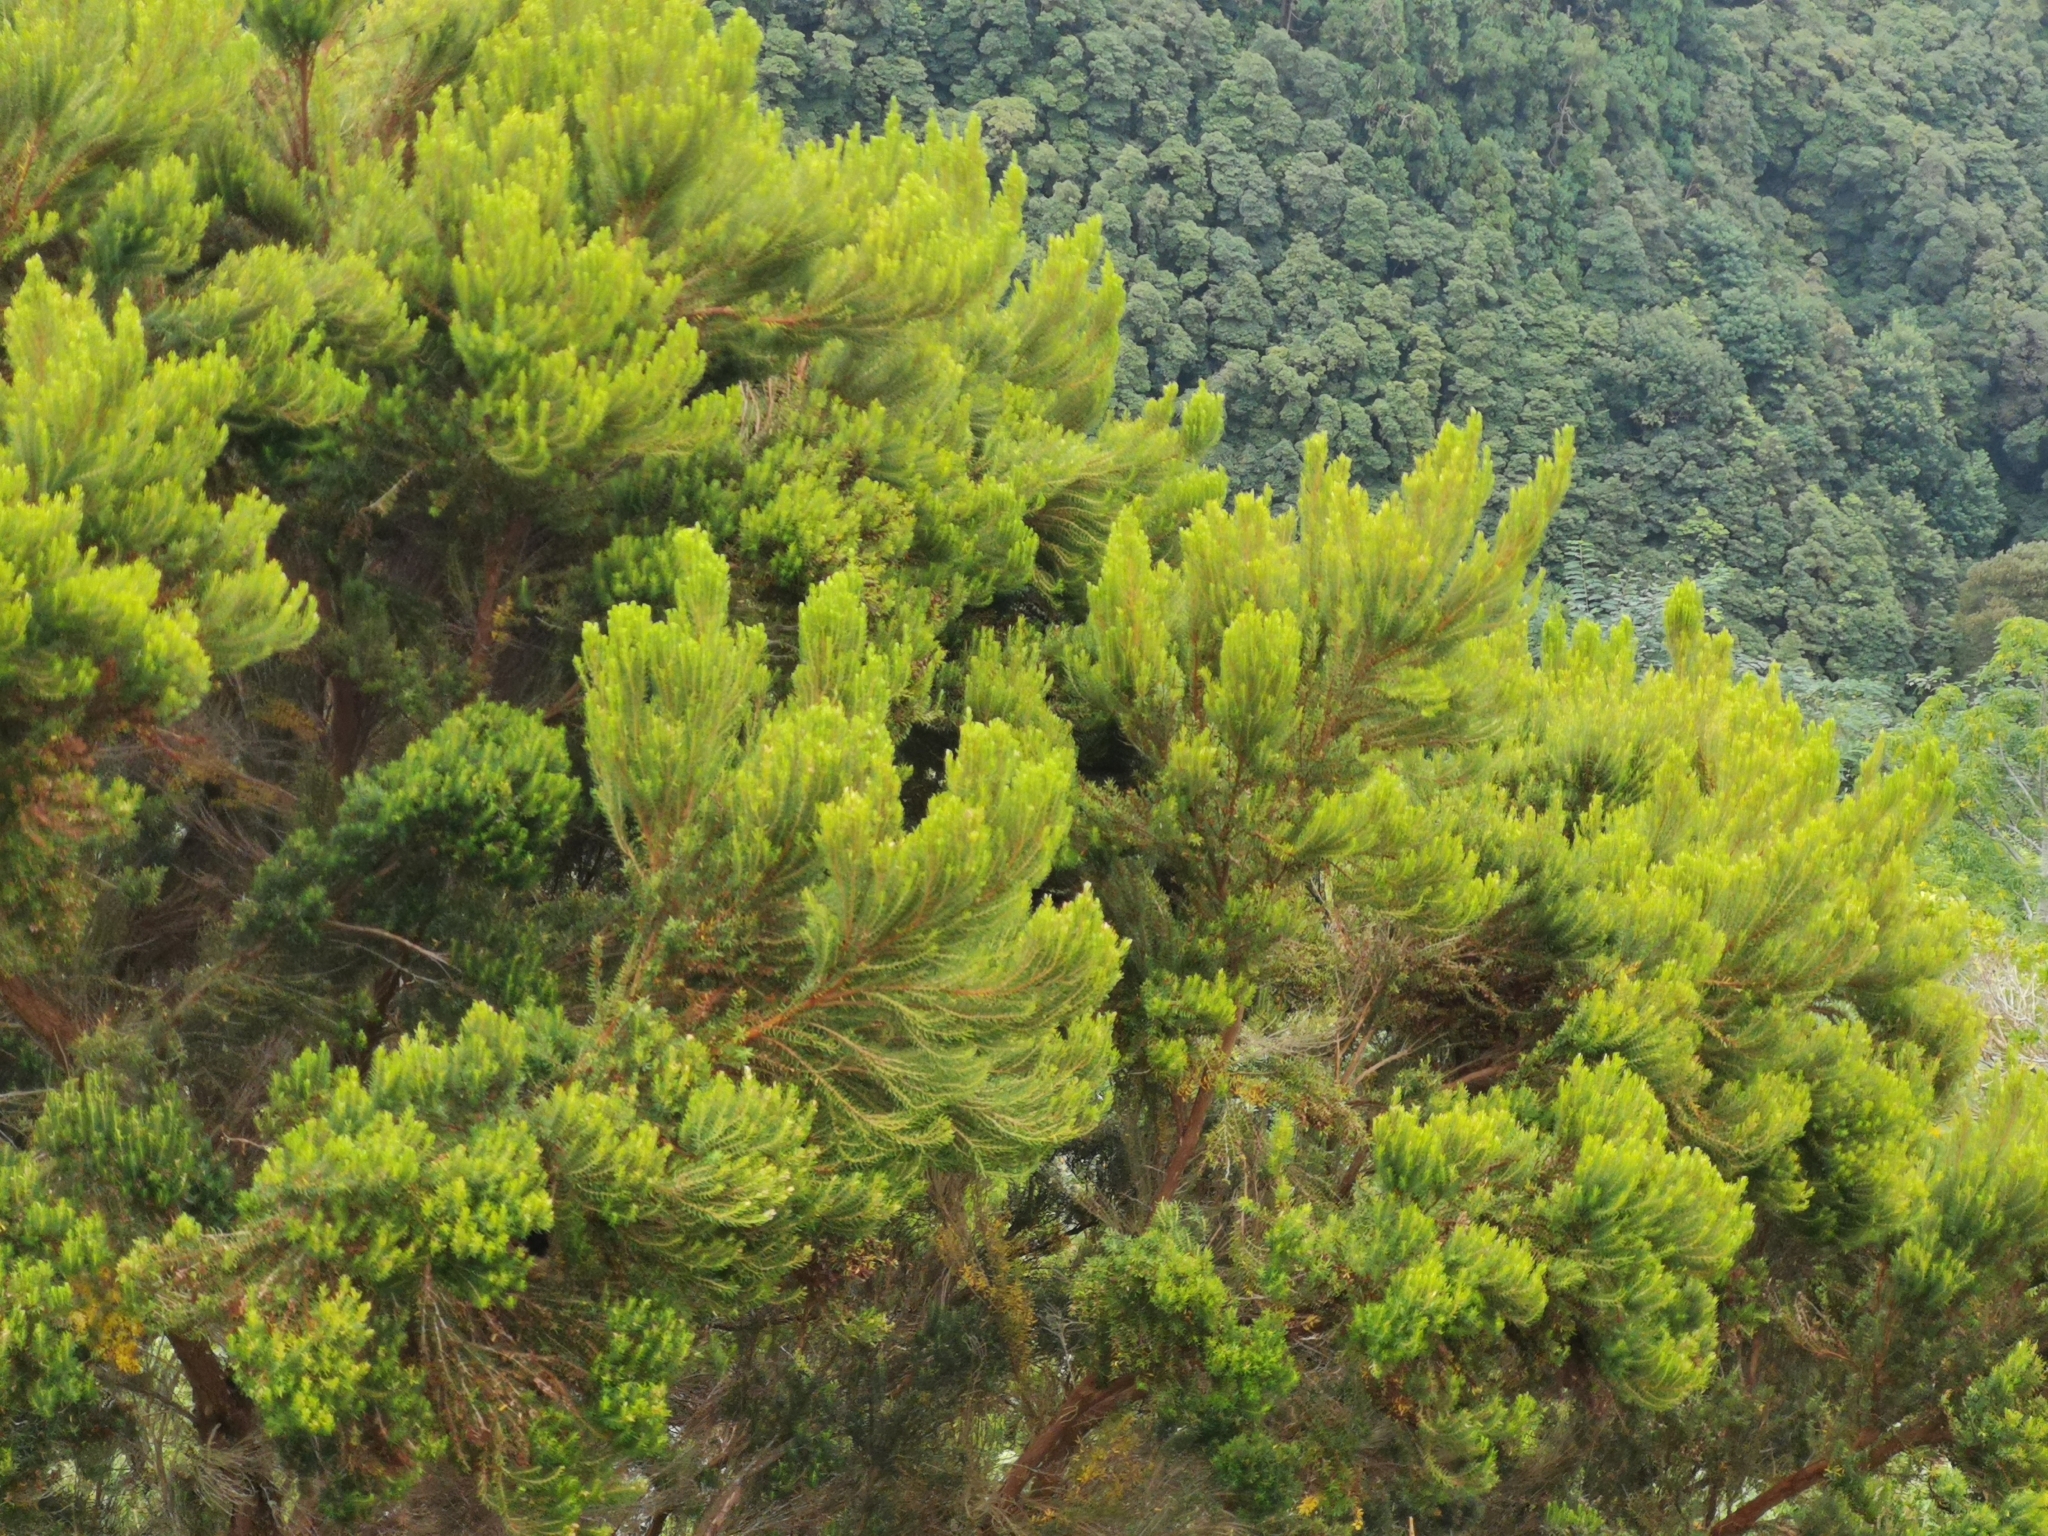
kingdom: Plantae
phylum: Tracheophyta
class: Magnoliopsida
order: Ericales
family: Ericaceae
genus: Erica
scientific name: Erica azorica
